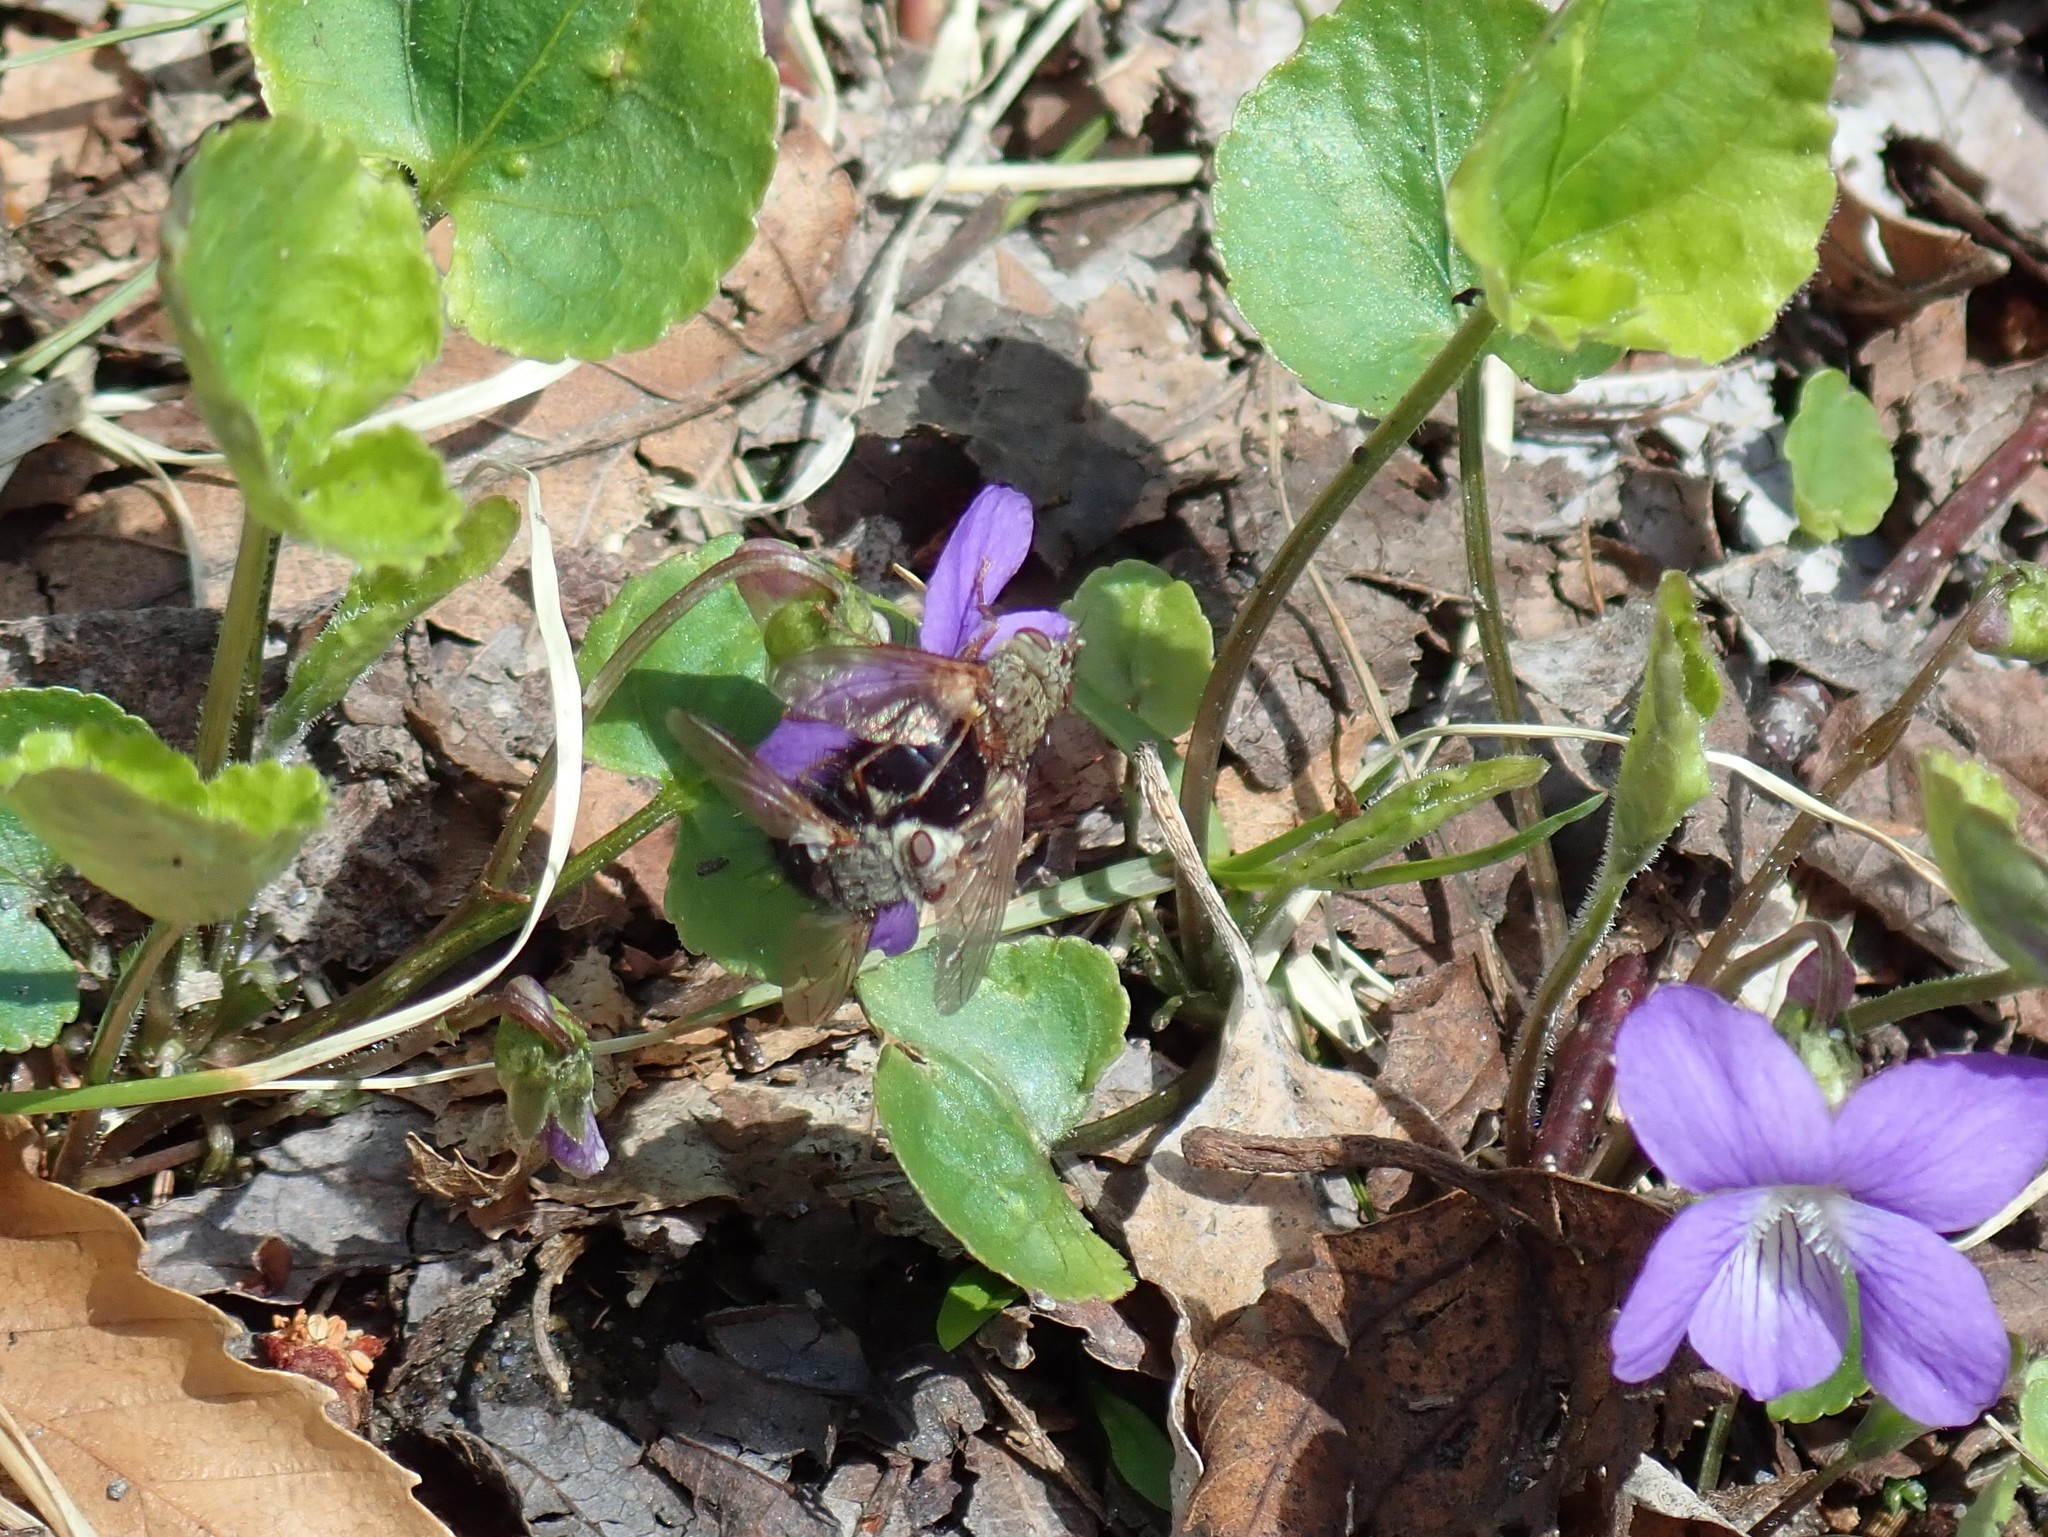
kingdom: Animalia
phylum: Arthropoda
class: Insecta
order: Diptera
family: Tachinidae
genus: Epalpus
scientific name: Epalpus signifer
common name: Early tachinid fly
